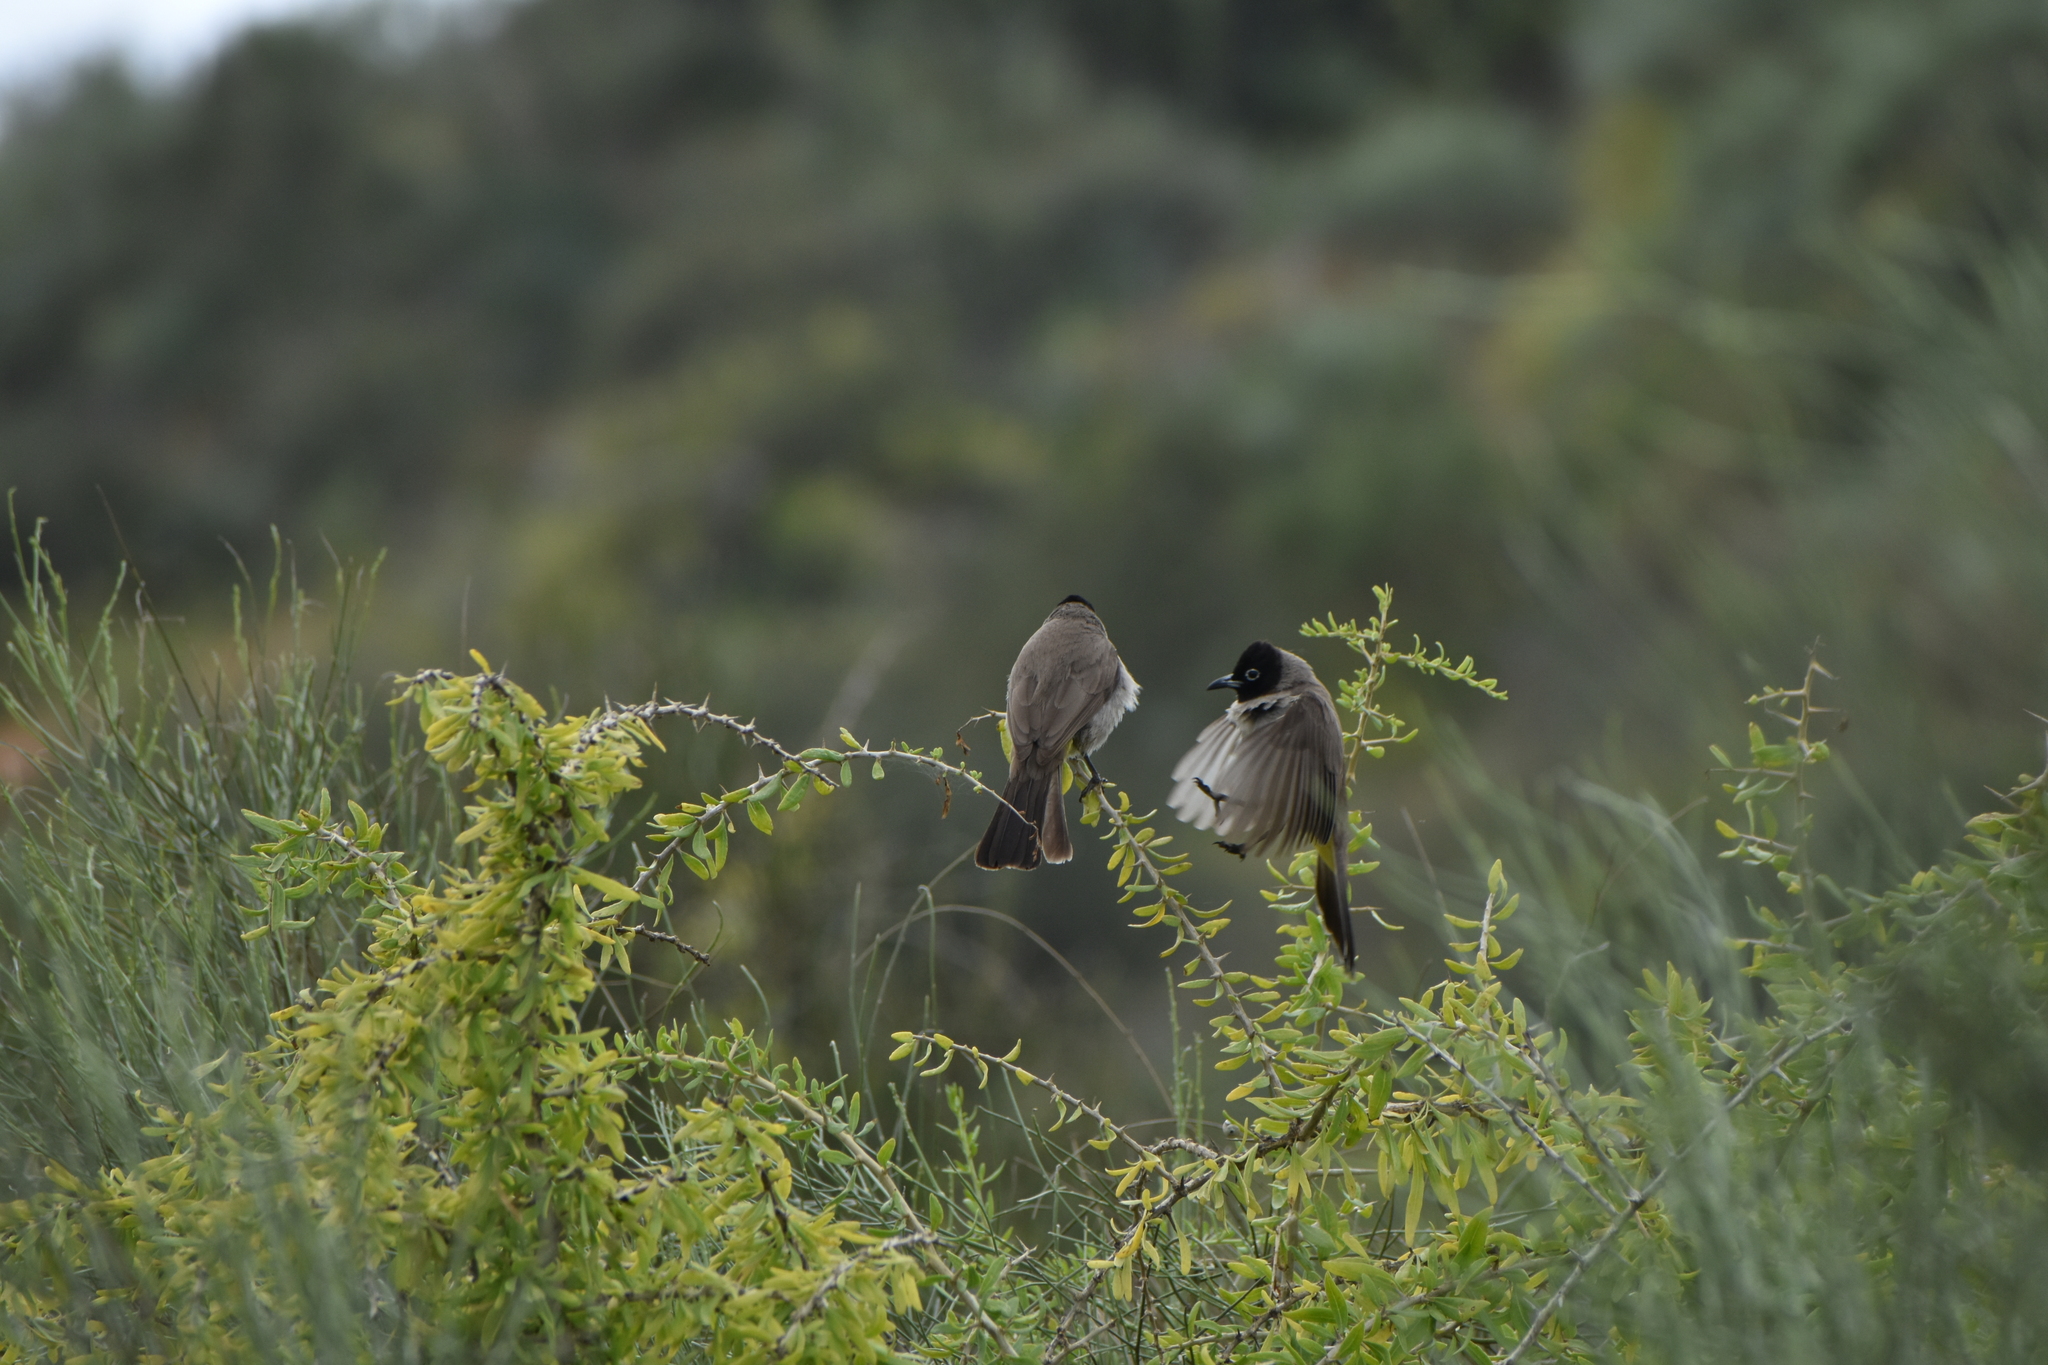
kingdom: Animalia
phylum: Chordata
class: Aves
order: Passeriformes
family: Pycnonotidae
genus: Pycnonotus
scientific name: Pycnonotus xanthopygos
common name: White-spectacled bulbul
